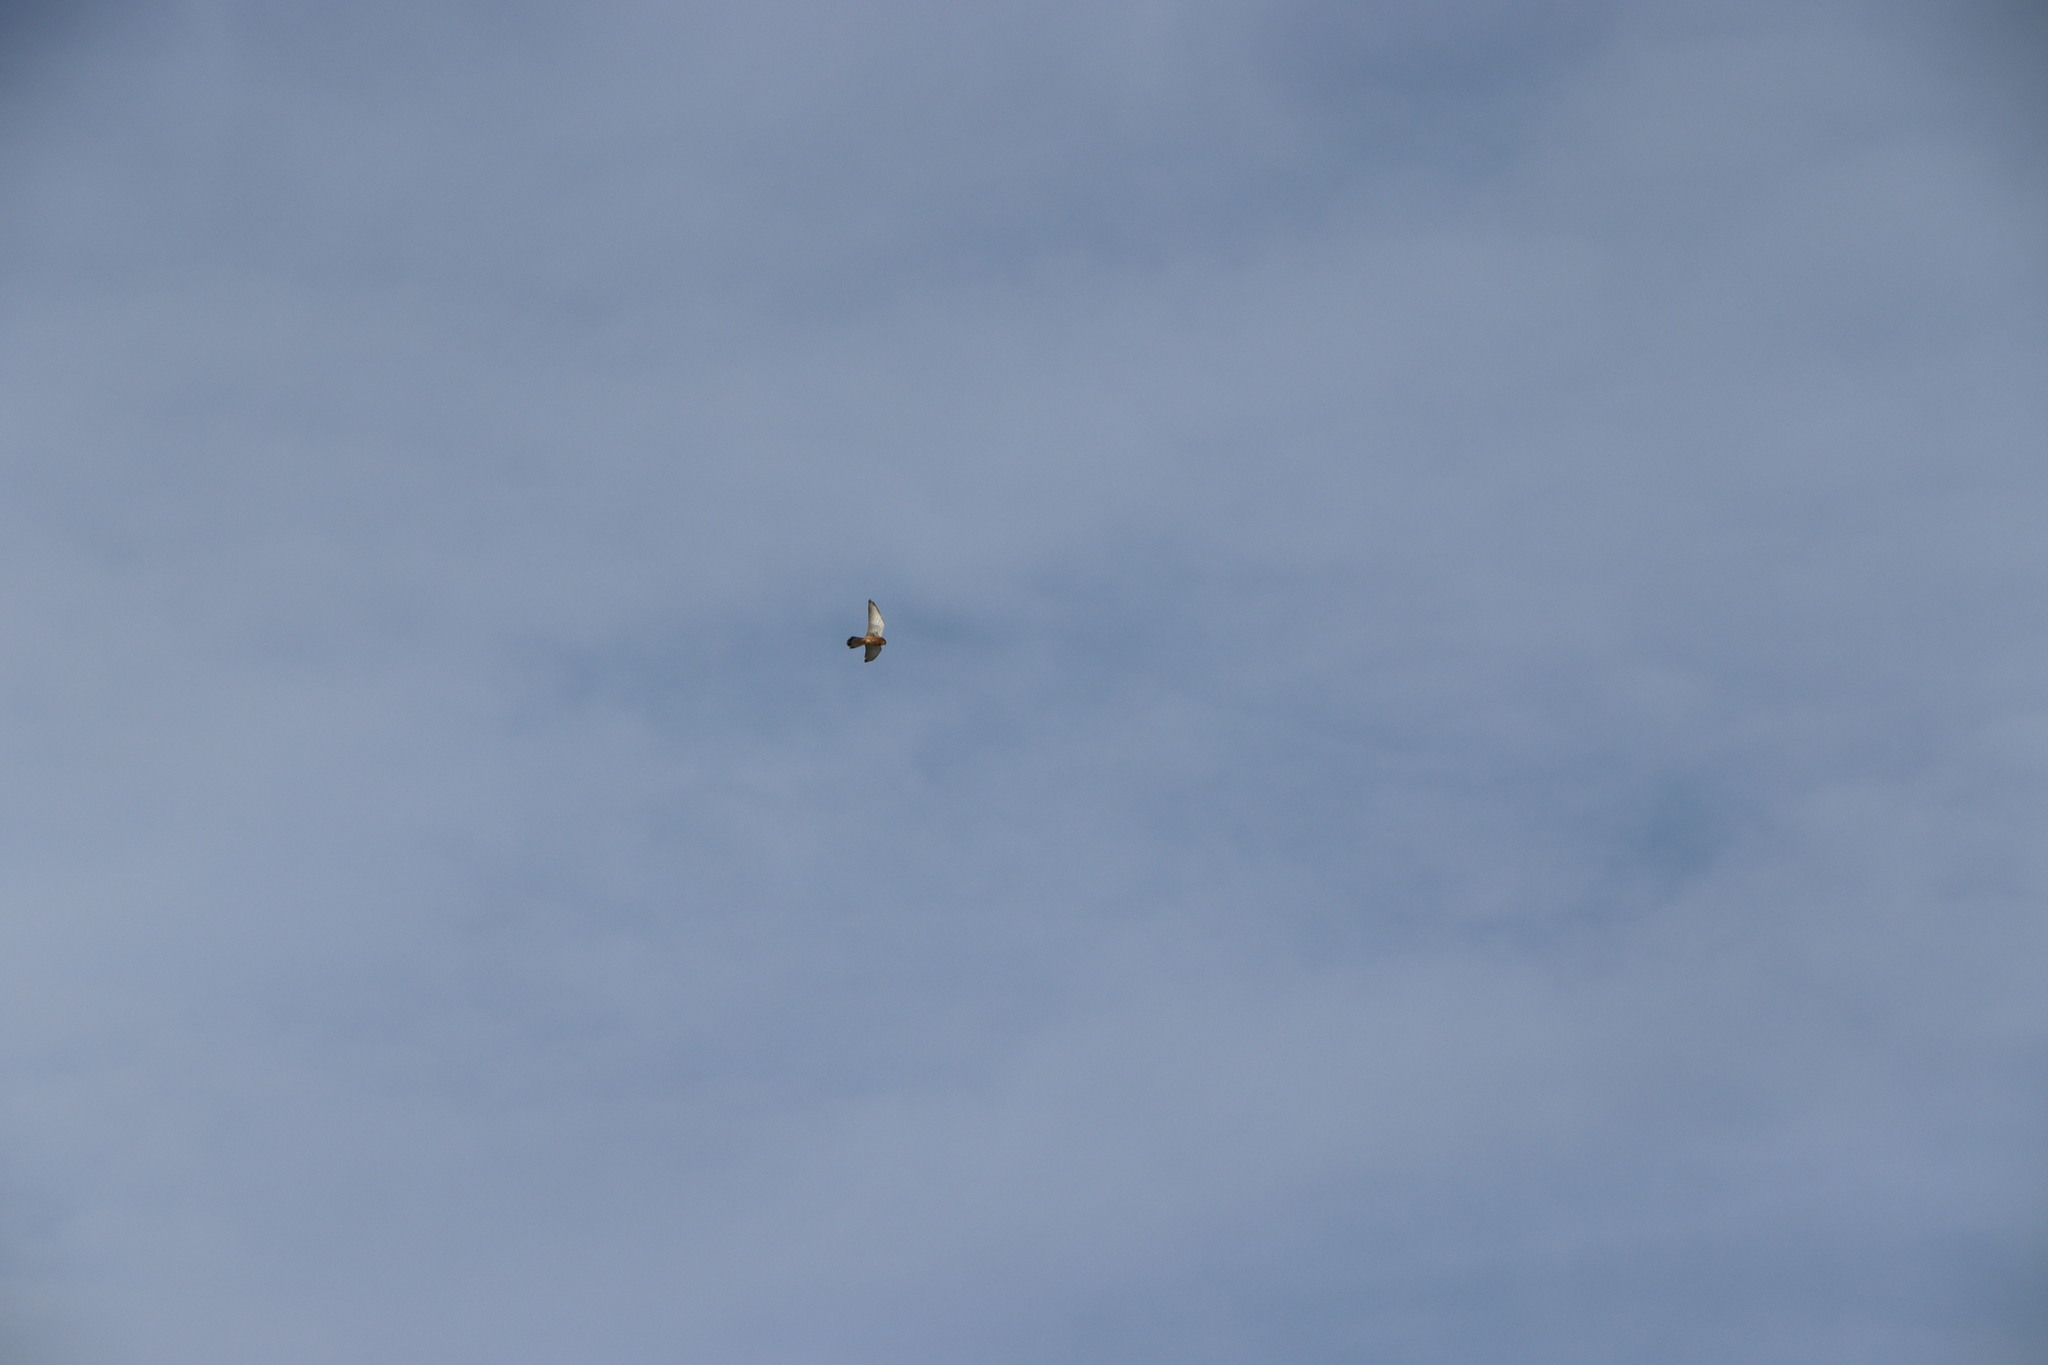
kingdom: Animalia
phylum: Chordata
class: Aves
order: Falconiformes
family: Falconidae
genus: Falco
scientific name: Falco tinnunculus
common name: Common kestrel
